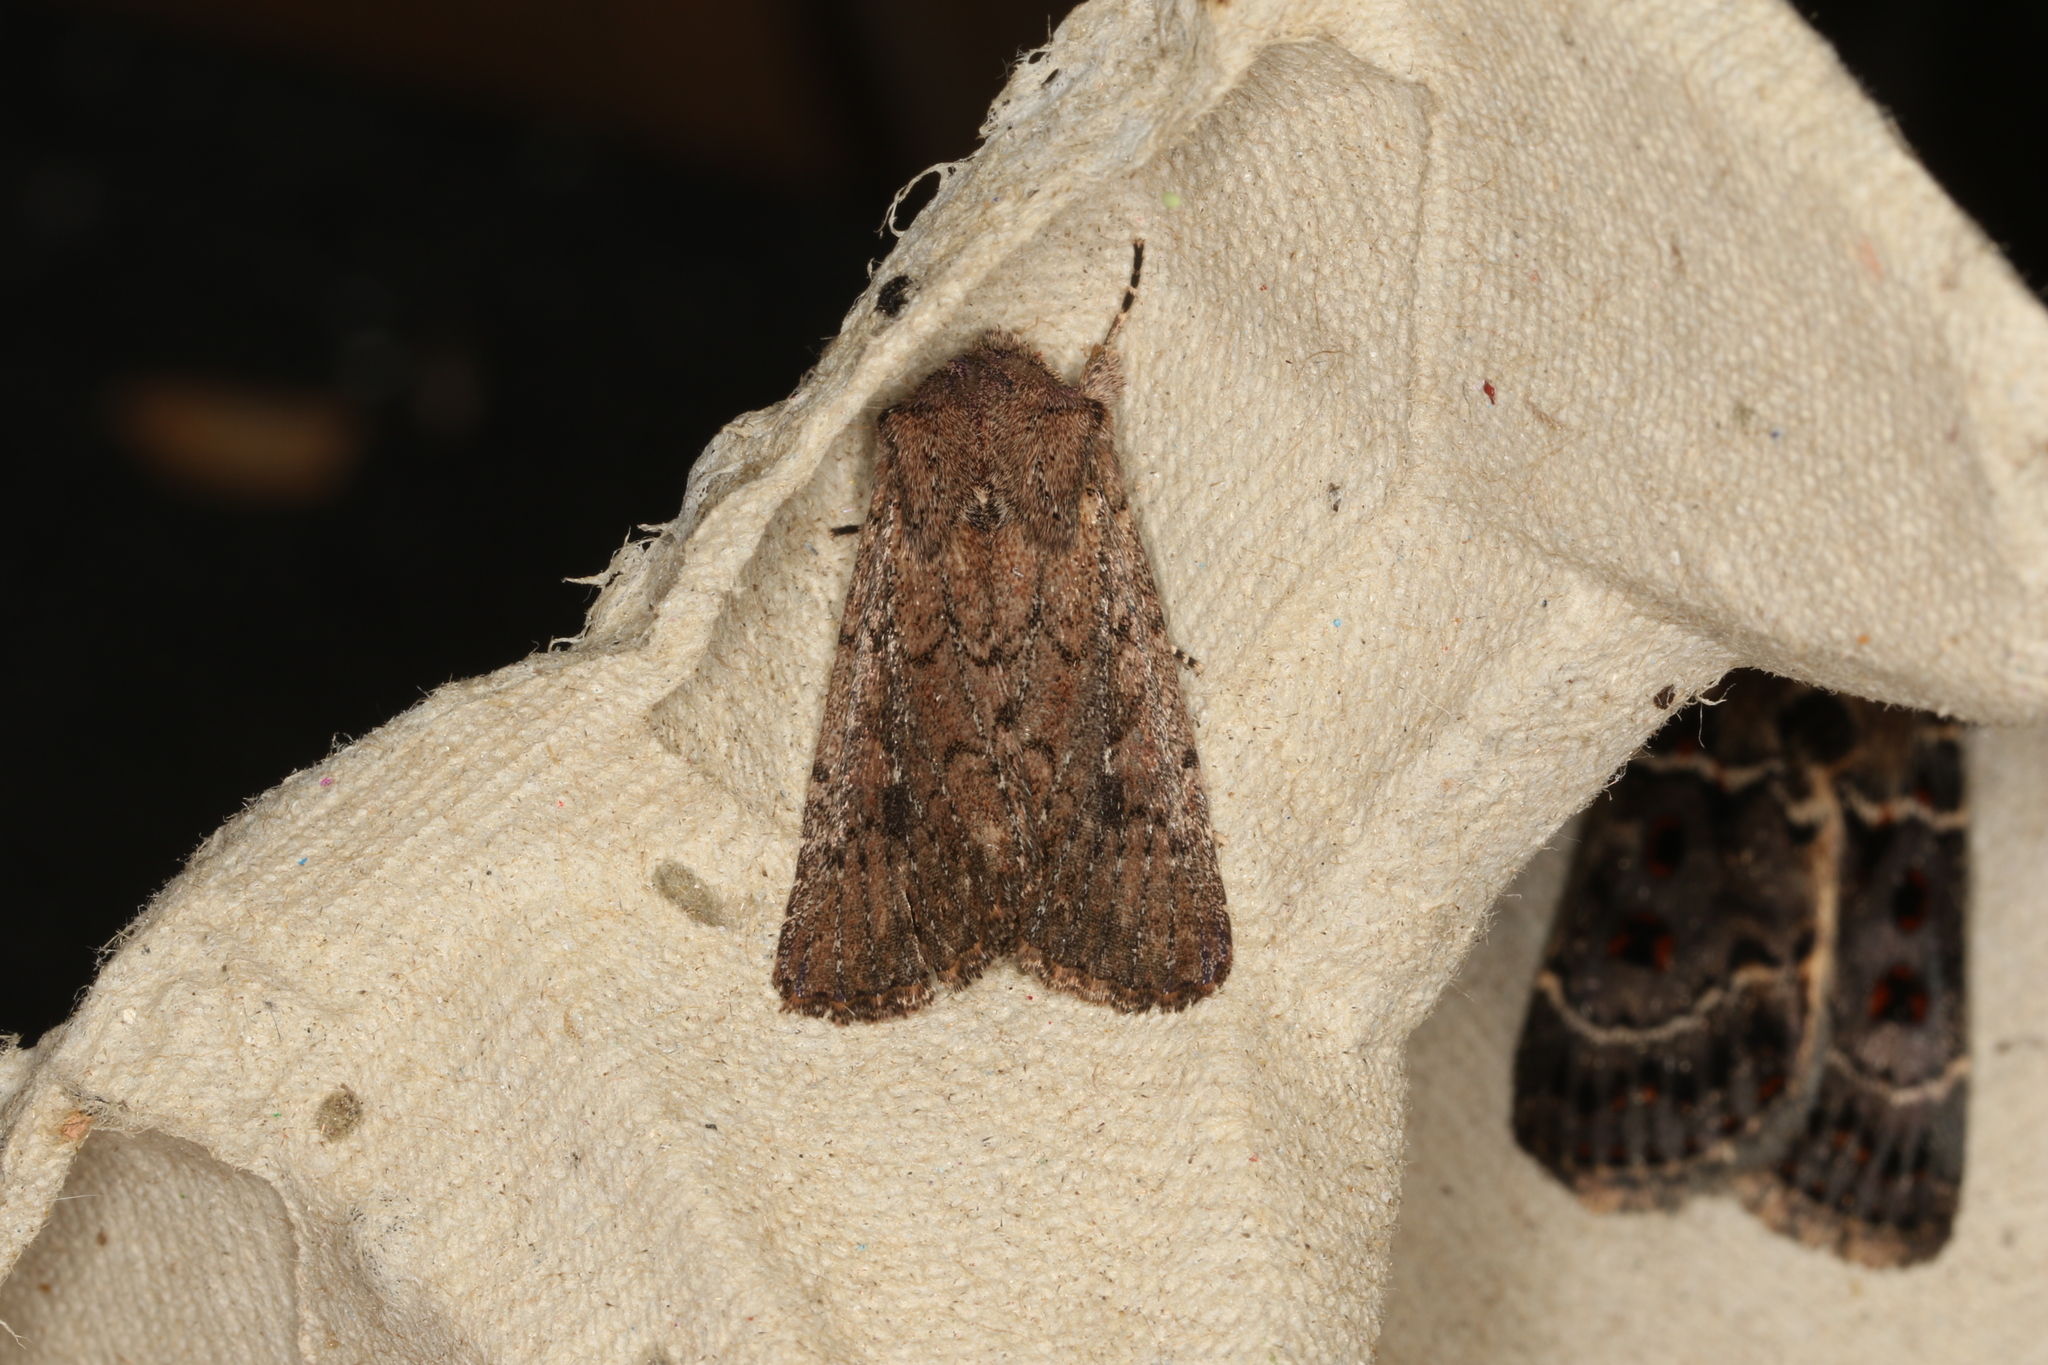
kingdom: Animalia
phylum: Arthropoda
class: Insecta
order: Lepidoptera
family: Noctuidae
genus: Dasygaster
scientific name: Dasygaster padockina
